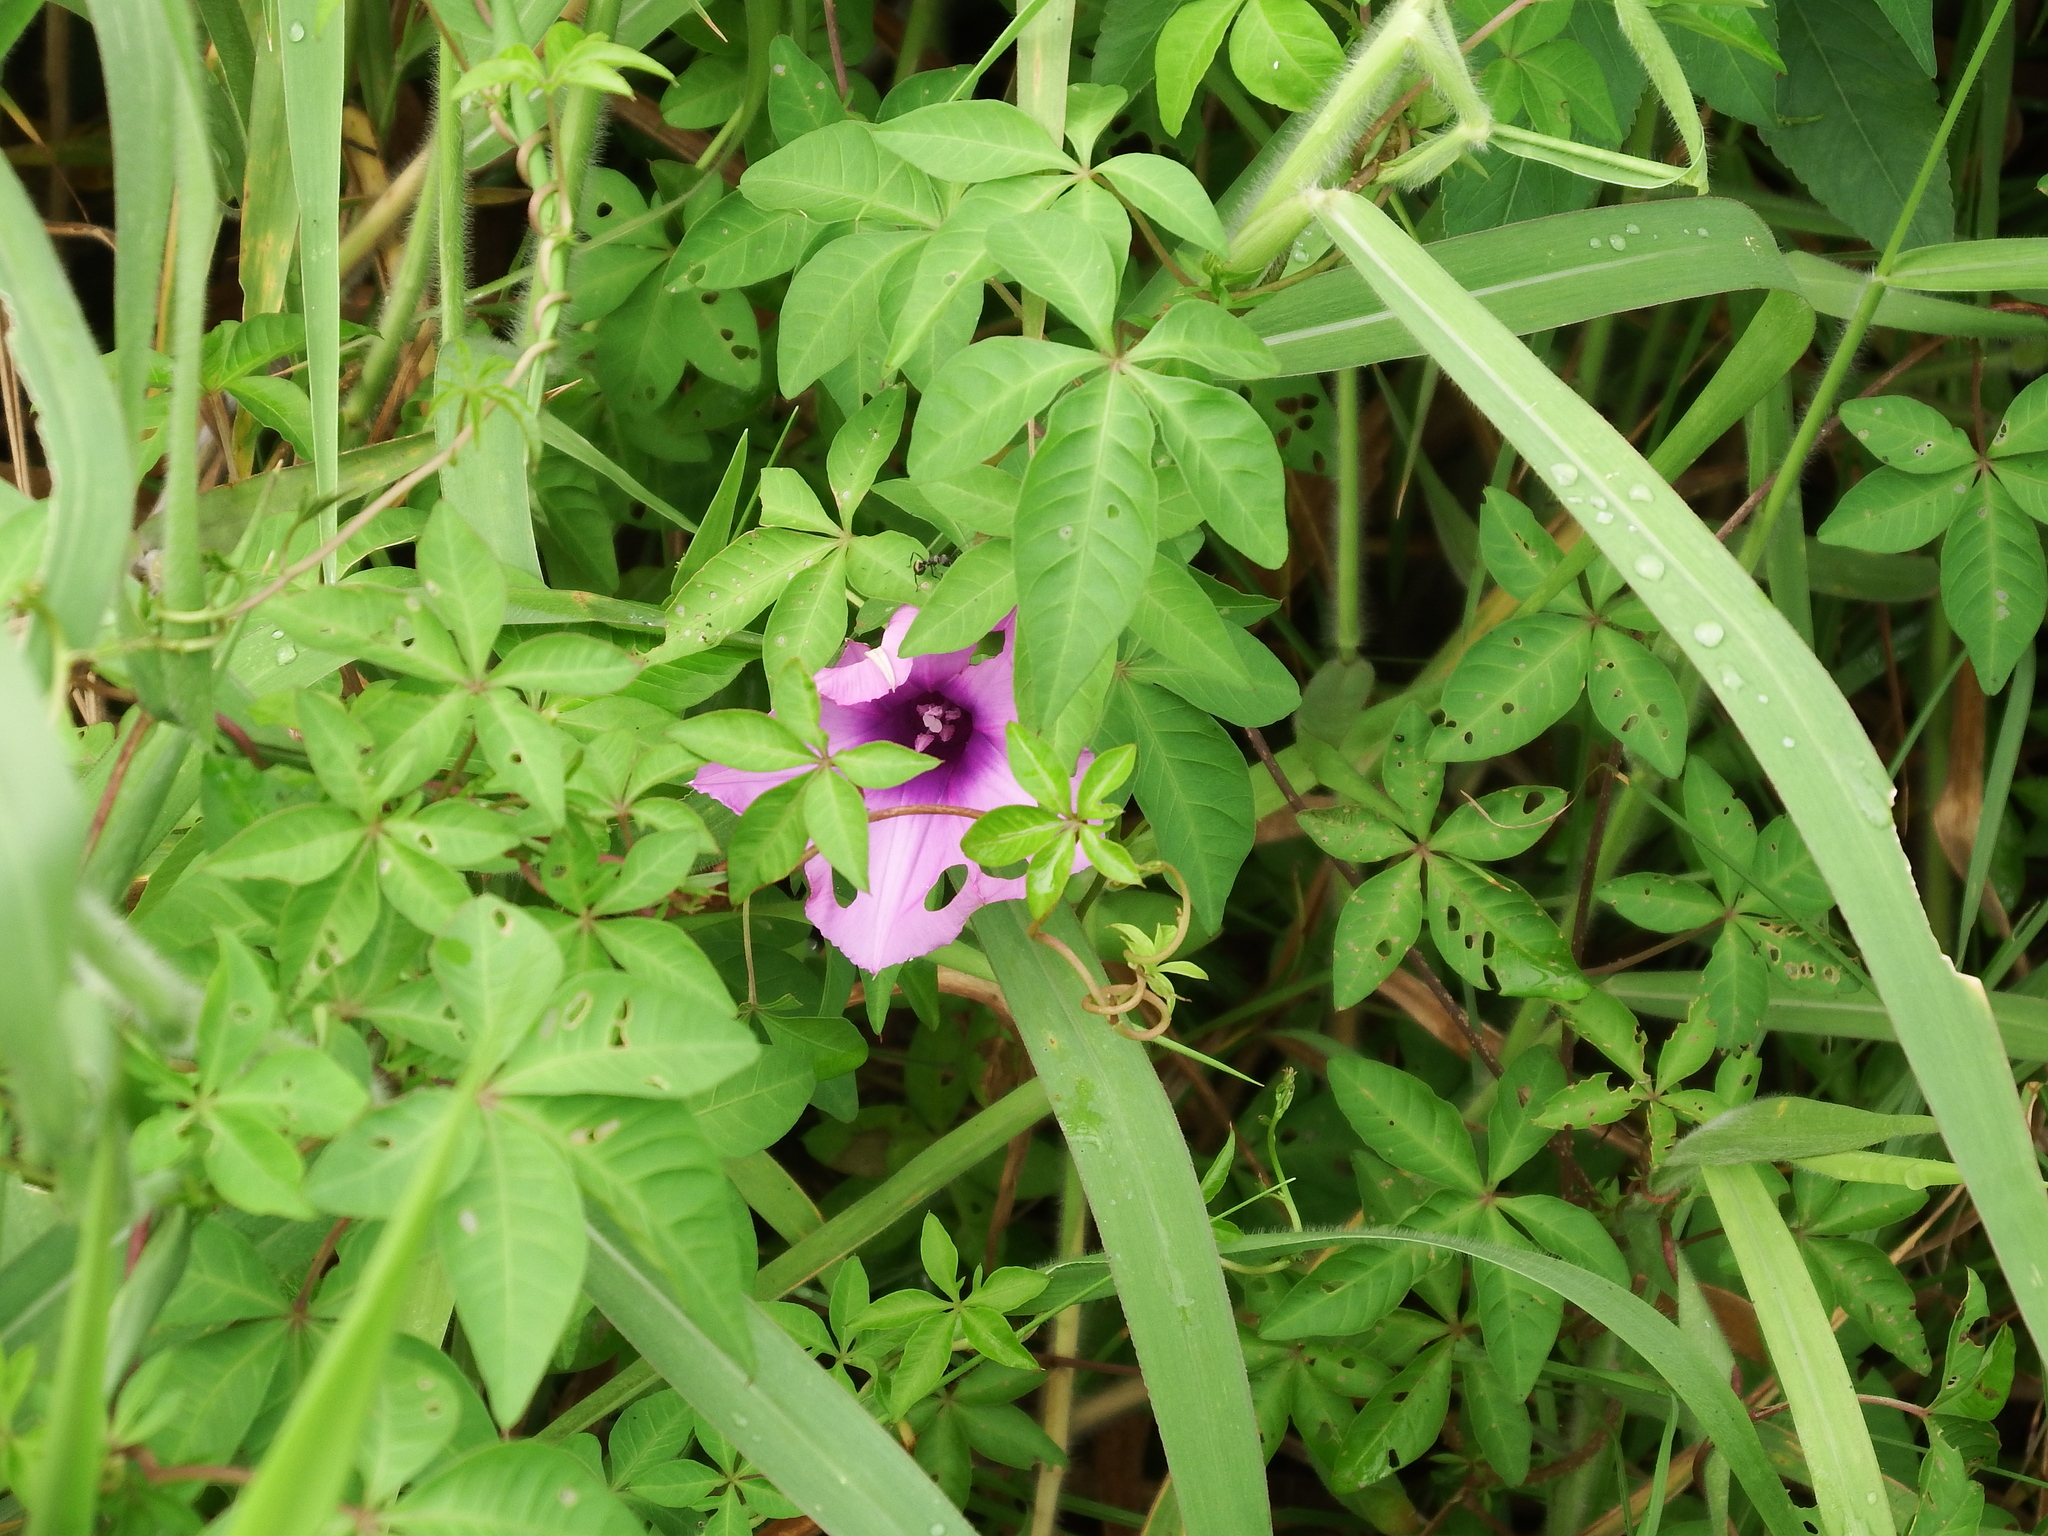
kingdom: Plantae
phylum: Tracheophyta
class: Magnoliopsida
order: Solanales
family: Convolvulaceae
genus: Ipomoea
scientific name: Ipomoea cairica
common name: Mile a minute vine
